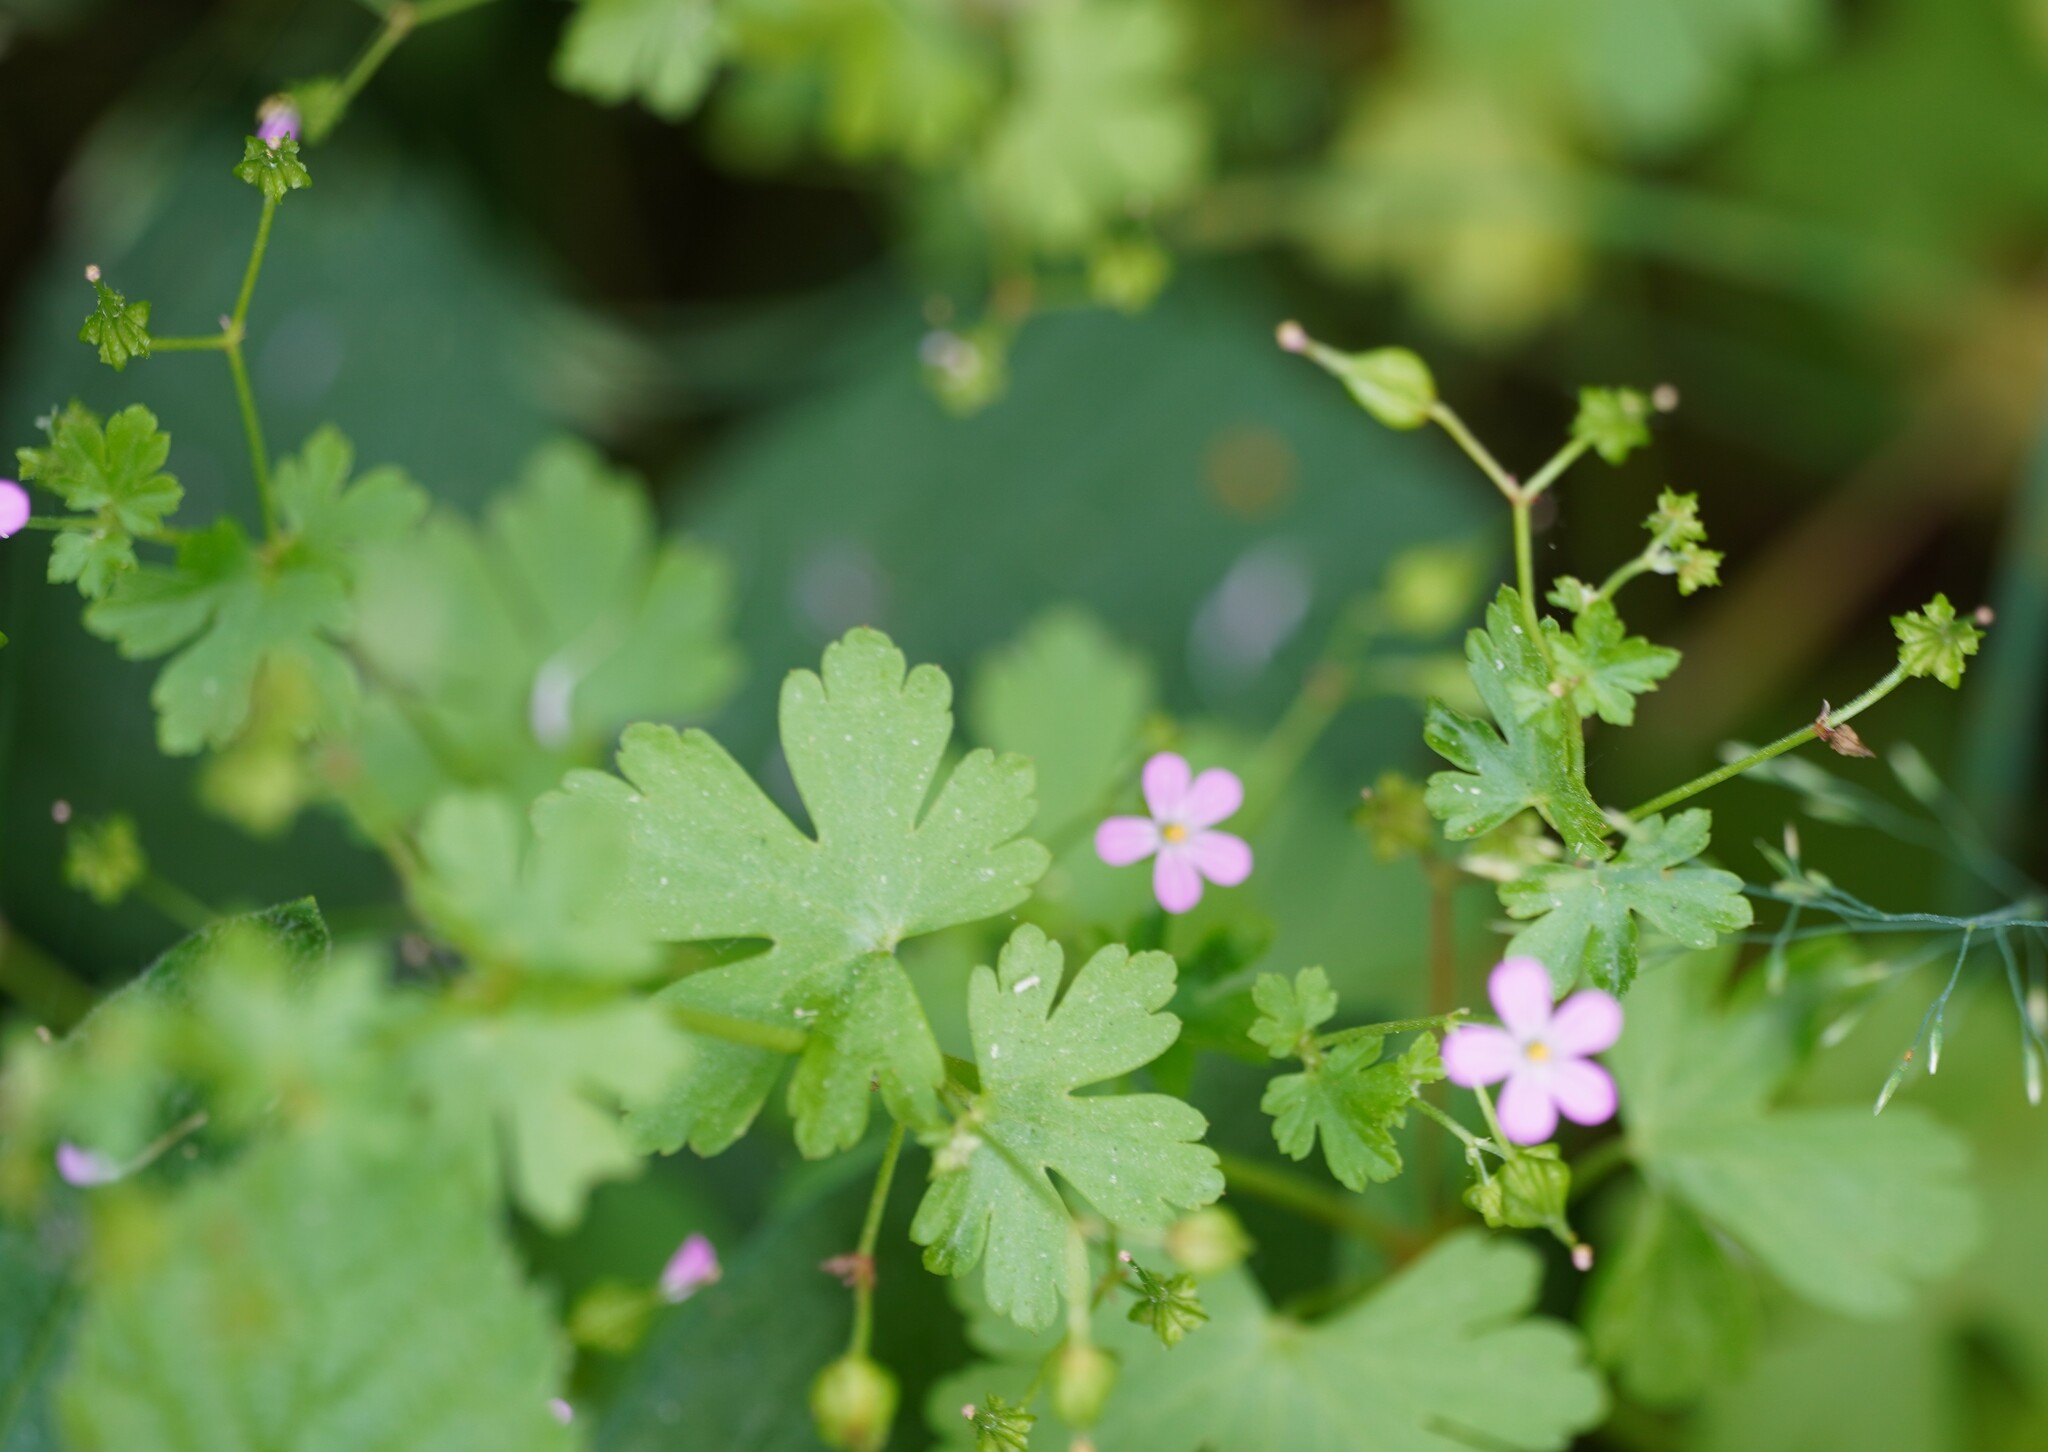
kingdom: Plantae
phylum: Tracheophyta
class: Magnoliopsida
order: Geraniales
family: Geraniaceae
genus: Geranium
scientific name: Geranium lucidum
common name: Shining crane's-bill
